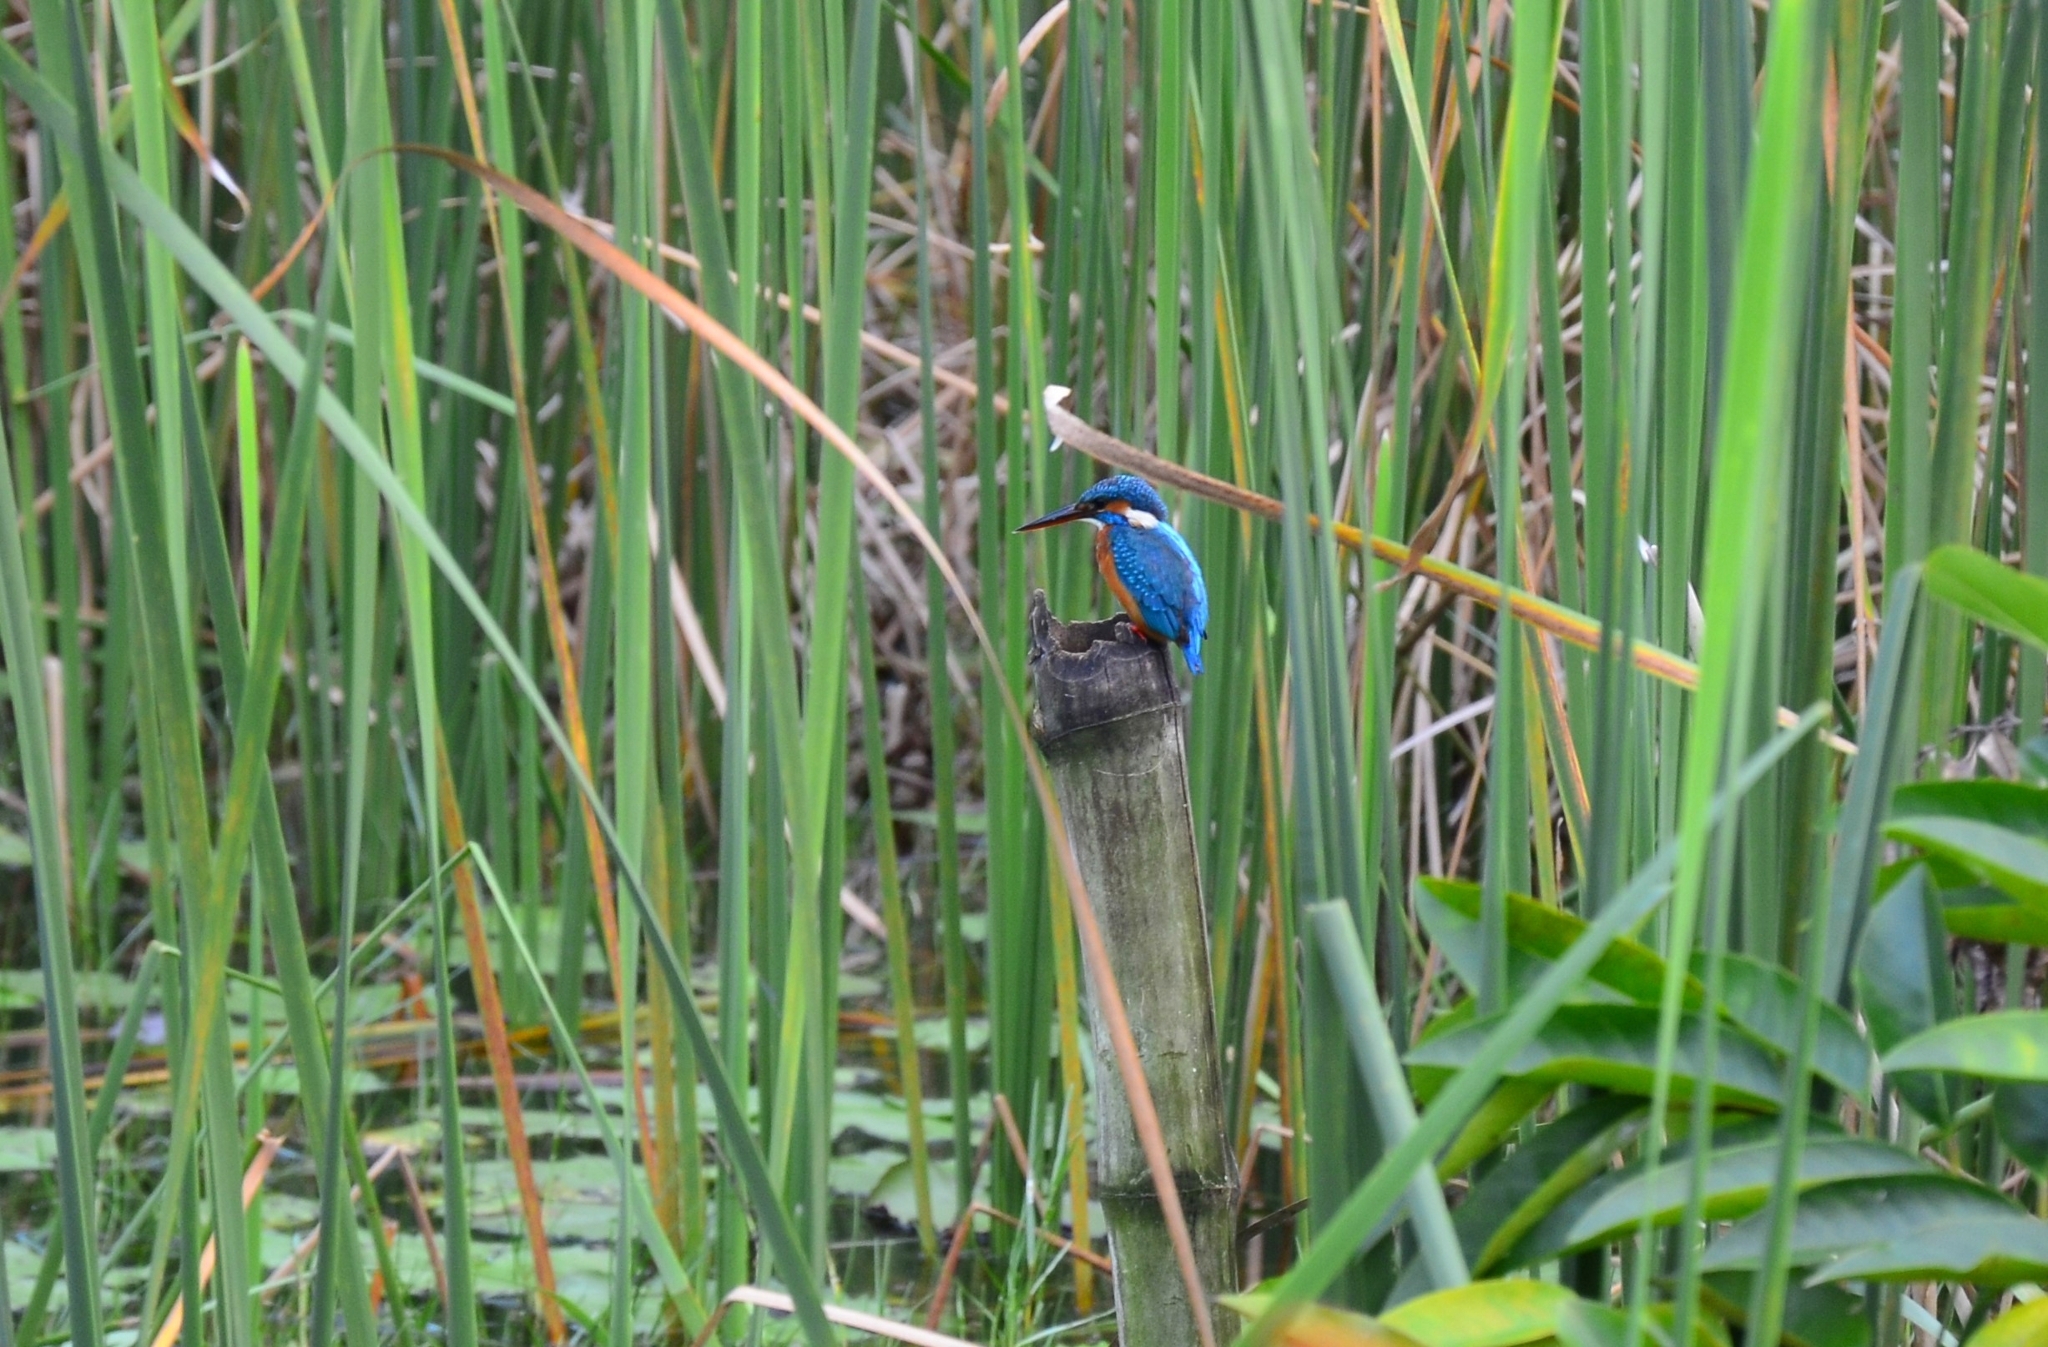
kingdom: Animalia
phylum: Chordata
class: Aves
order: Coraciiformes
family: Alcedinidae
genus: Alcedo
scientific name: Alcedo atthis
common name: Common kingfisher
